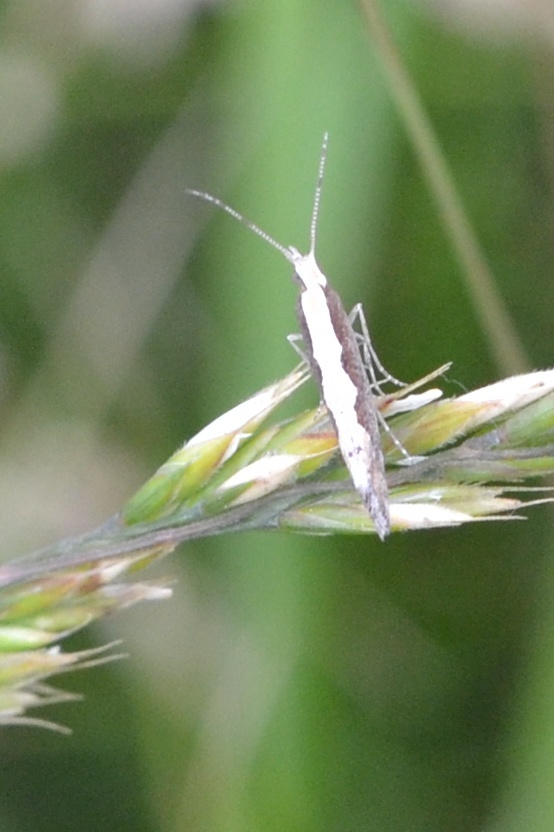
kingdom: Animalia
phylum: Arthropoda
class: Insecta
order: Lepidoptera
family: Plutellidae
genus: Plutella
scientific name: Plutella xylostella
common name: Diamond-back moth
